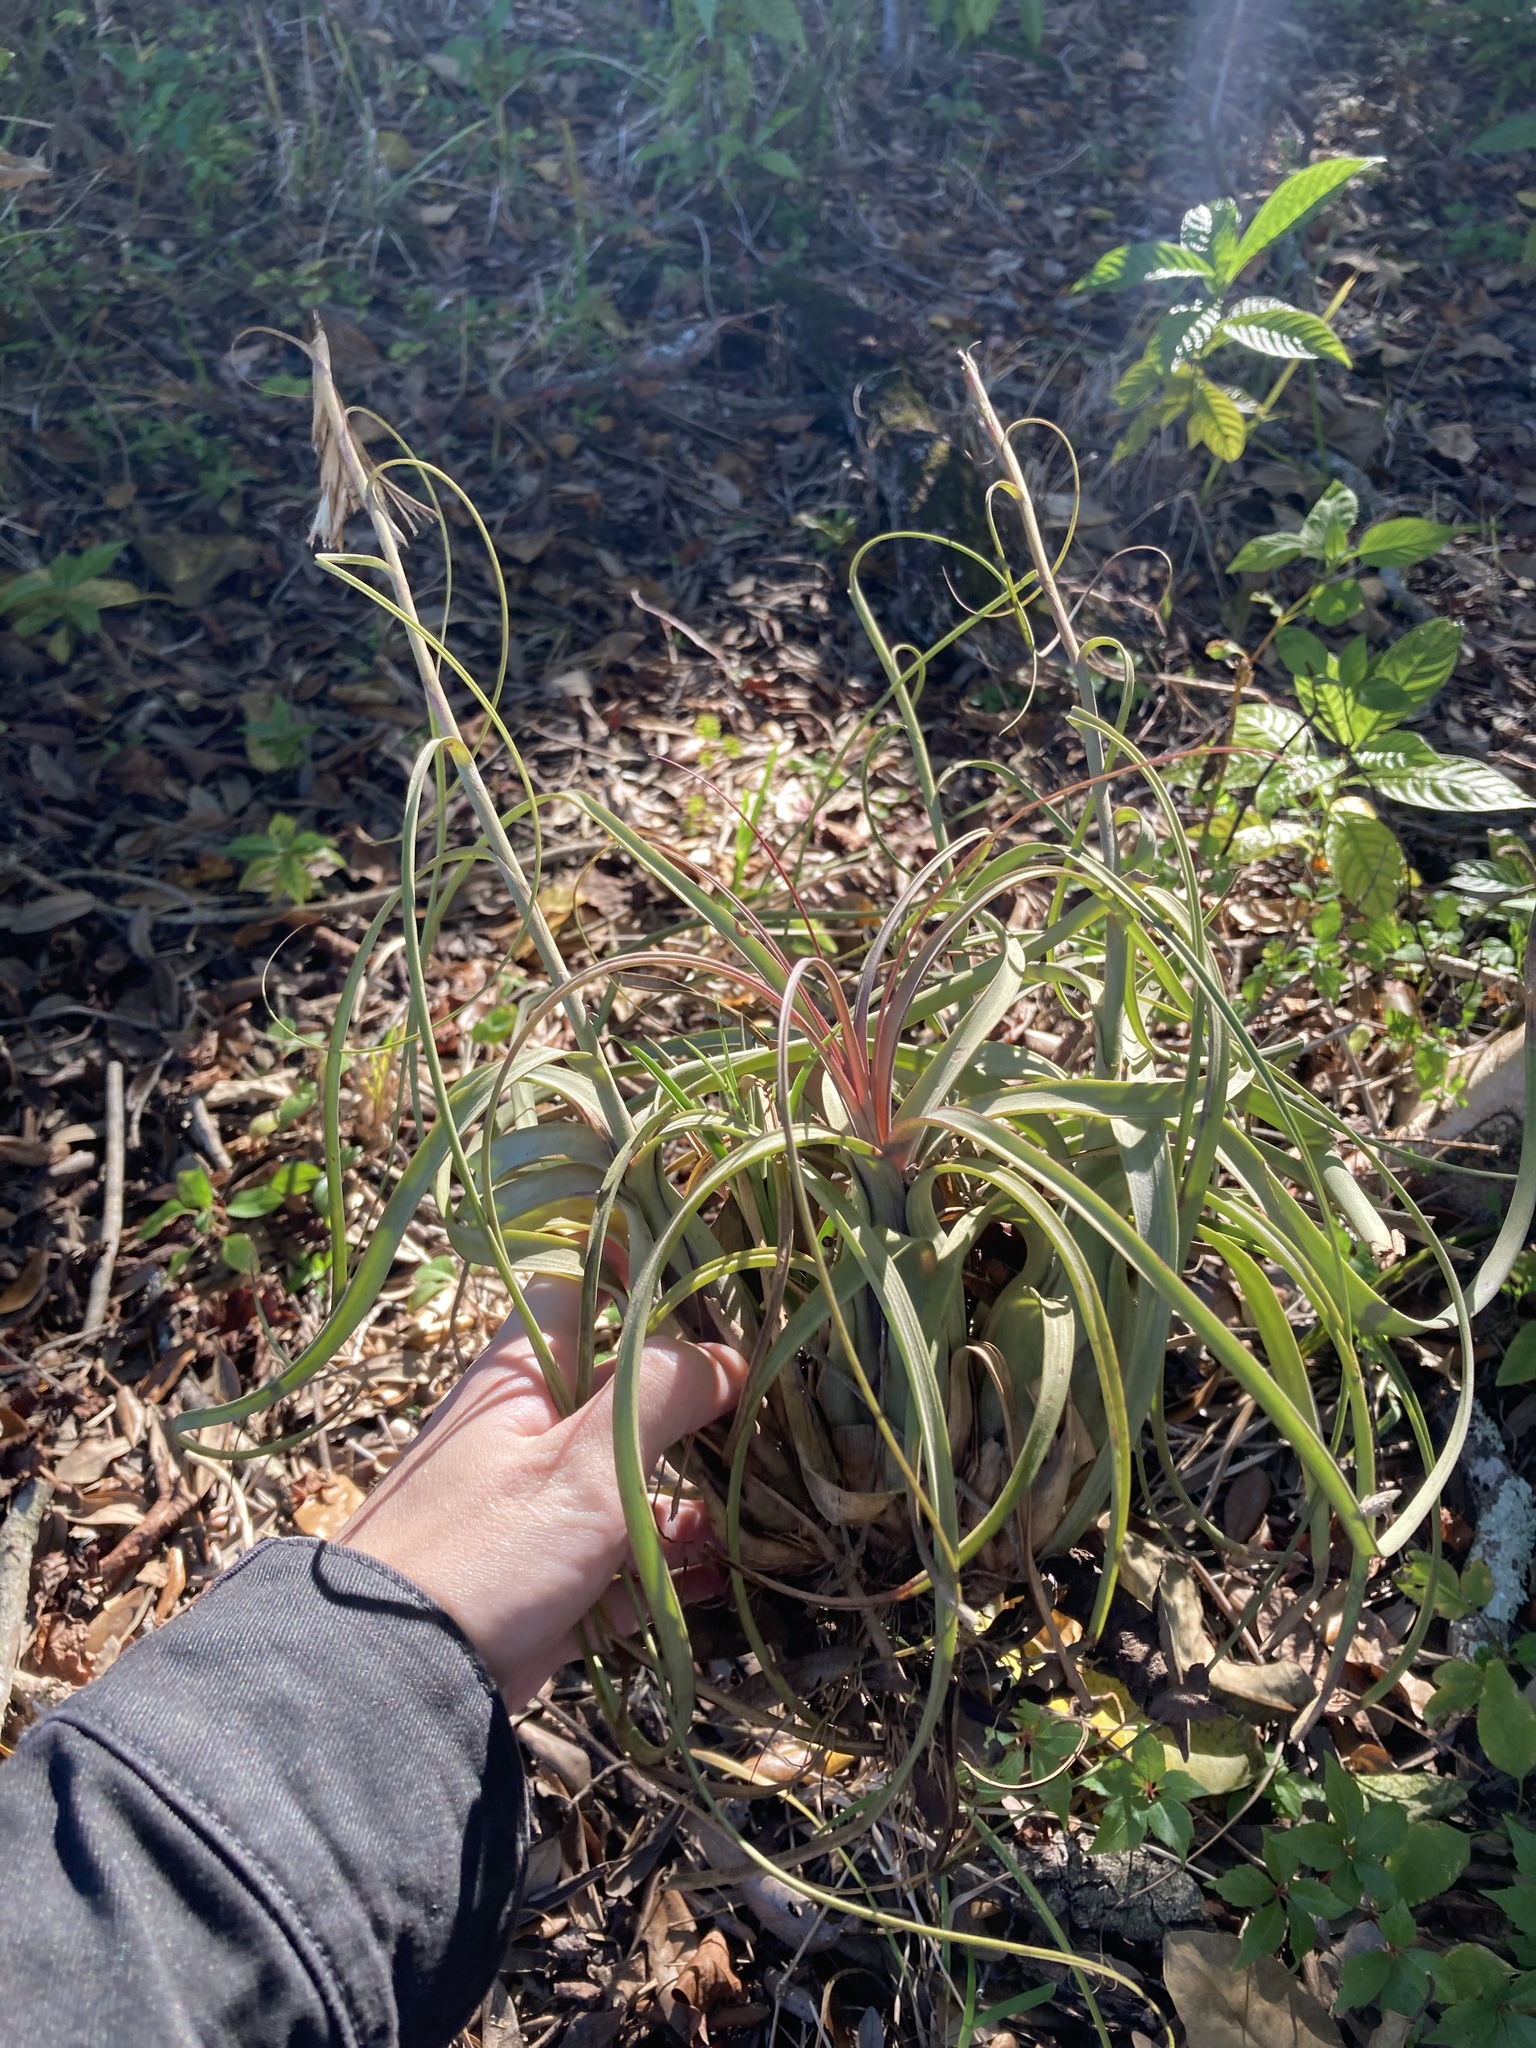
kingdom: Plantae
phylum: Tracheophyta
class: Liliopsida
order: Poales
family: Bromeliaceae
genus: Tillandsia
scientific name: Tillandsia balbisiana
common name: Northern needleleaf
